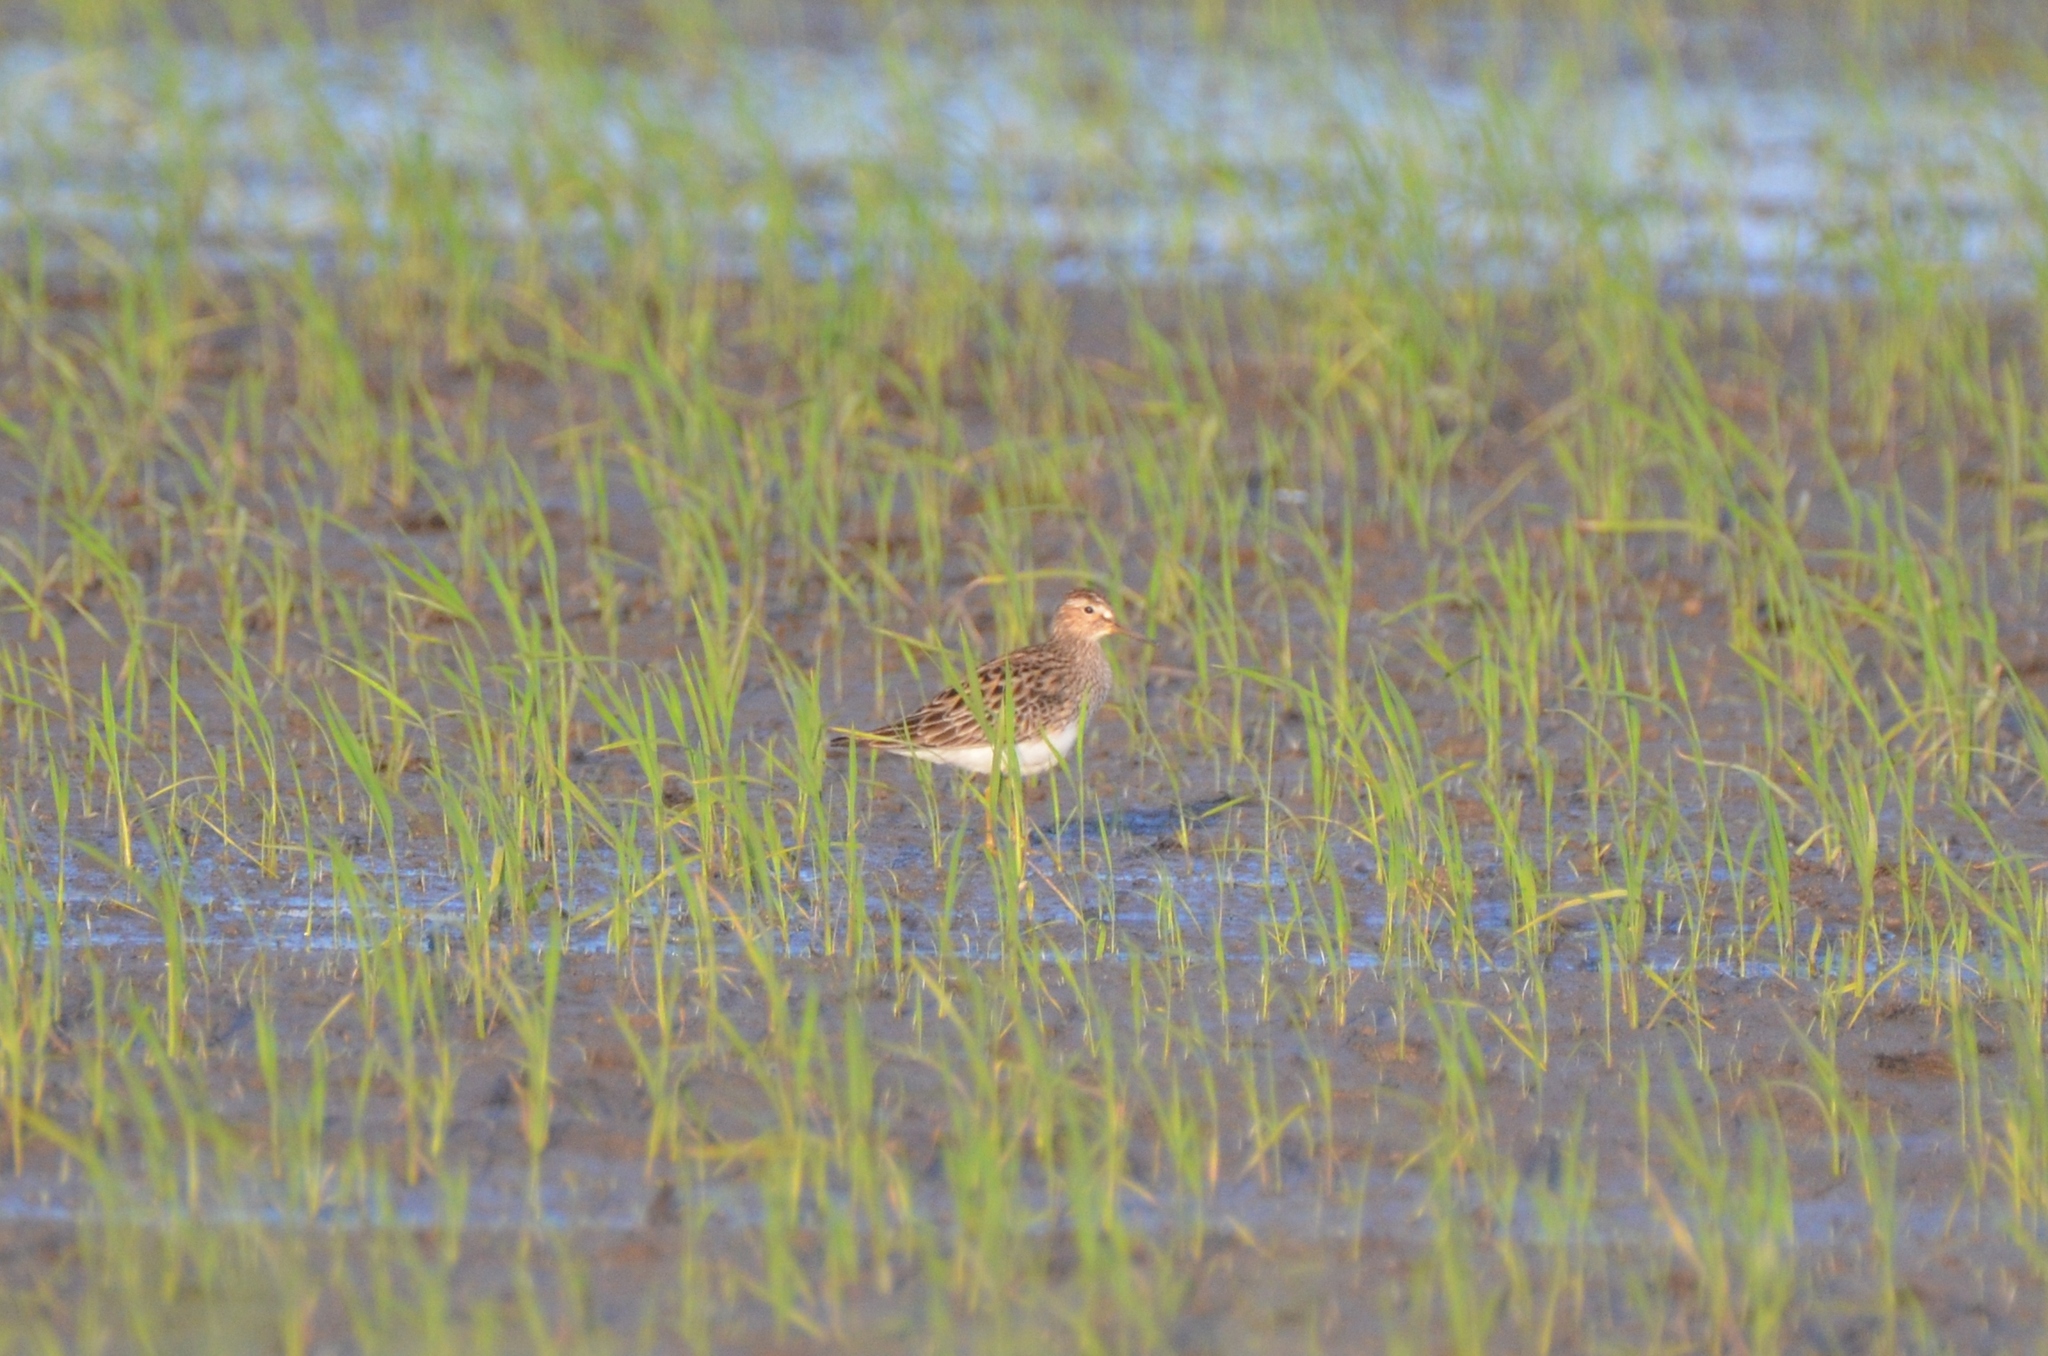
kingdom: Animalia
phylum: Chordata
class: Aves
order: Charadriiformes
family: Scolopacidae
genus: Calidris
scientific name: Calidris melanotos
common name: Pectoral sandpiper
